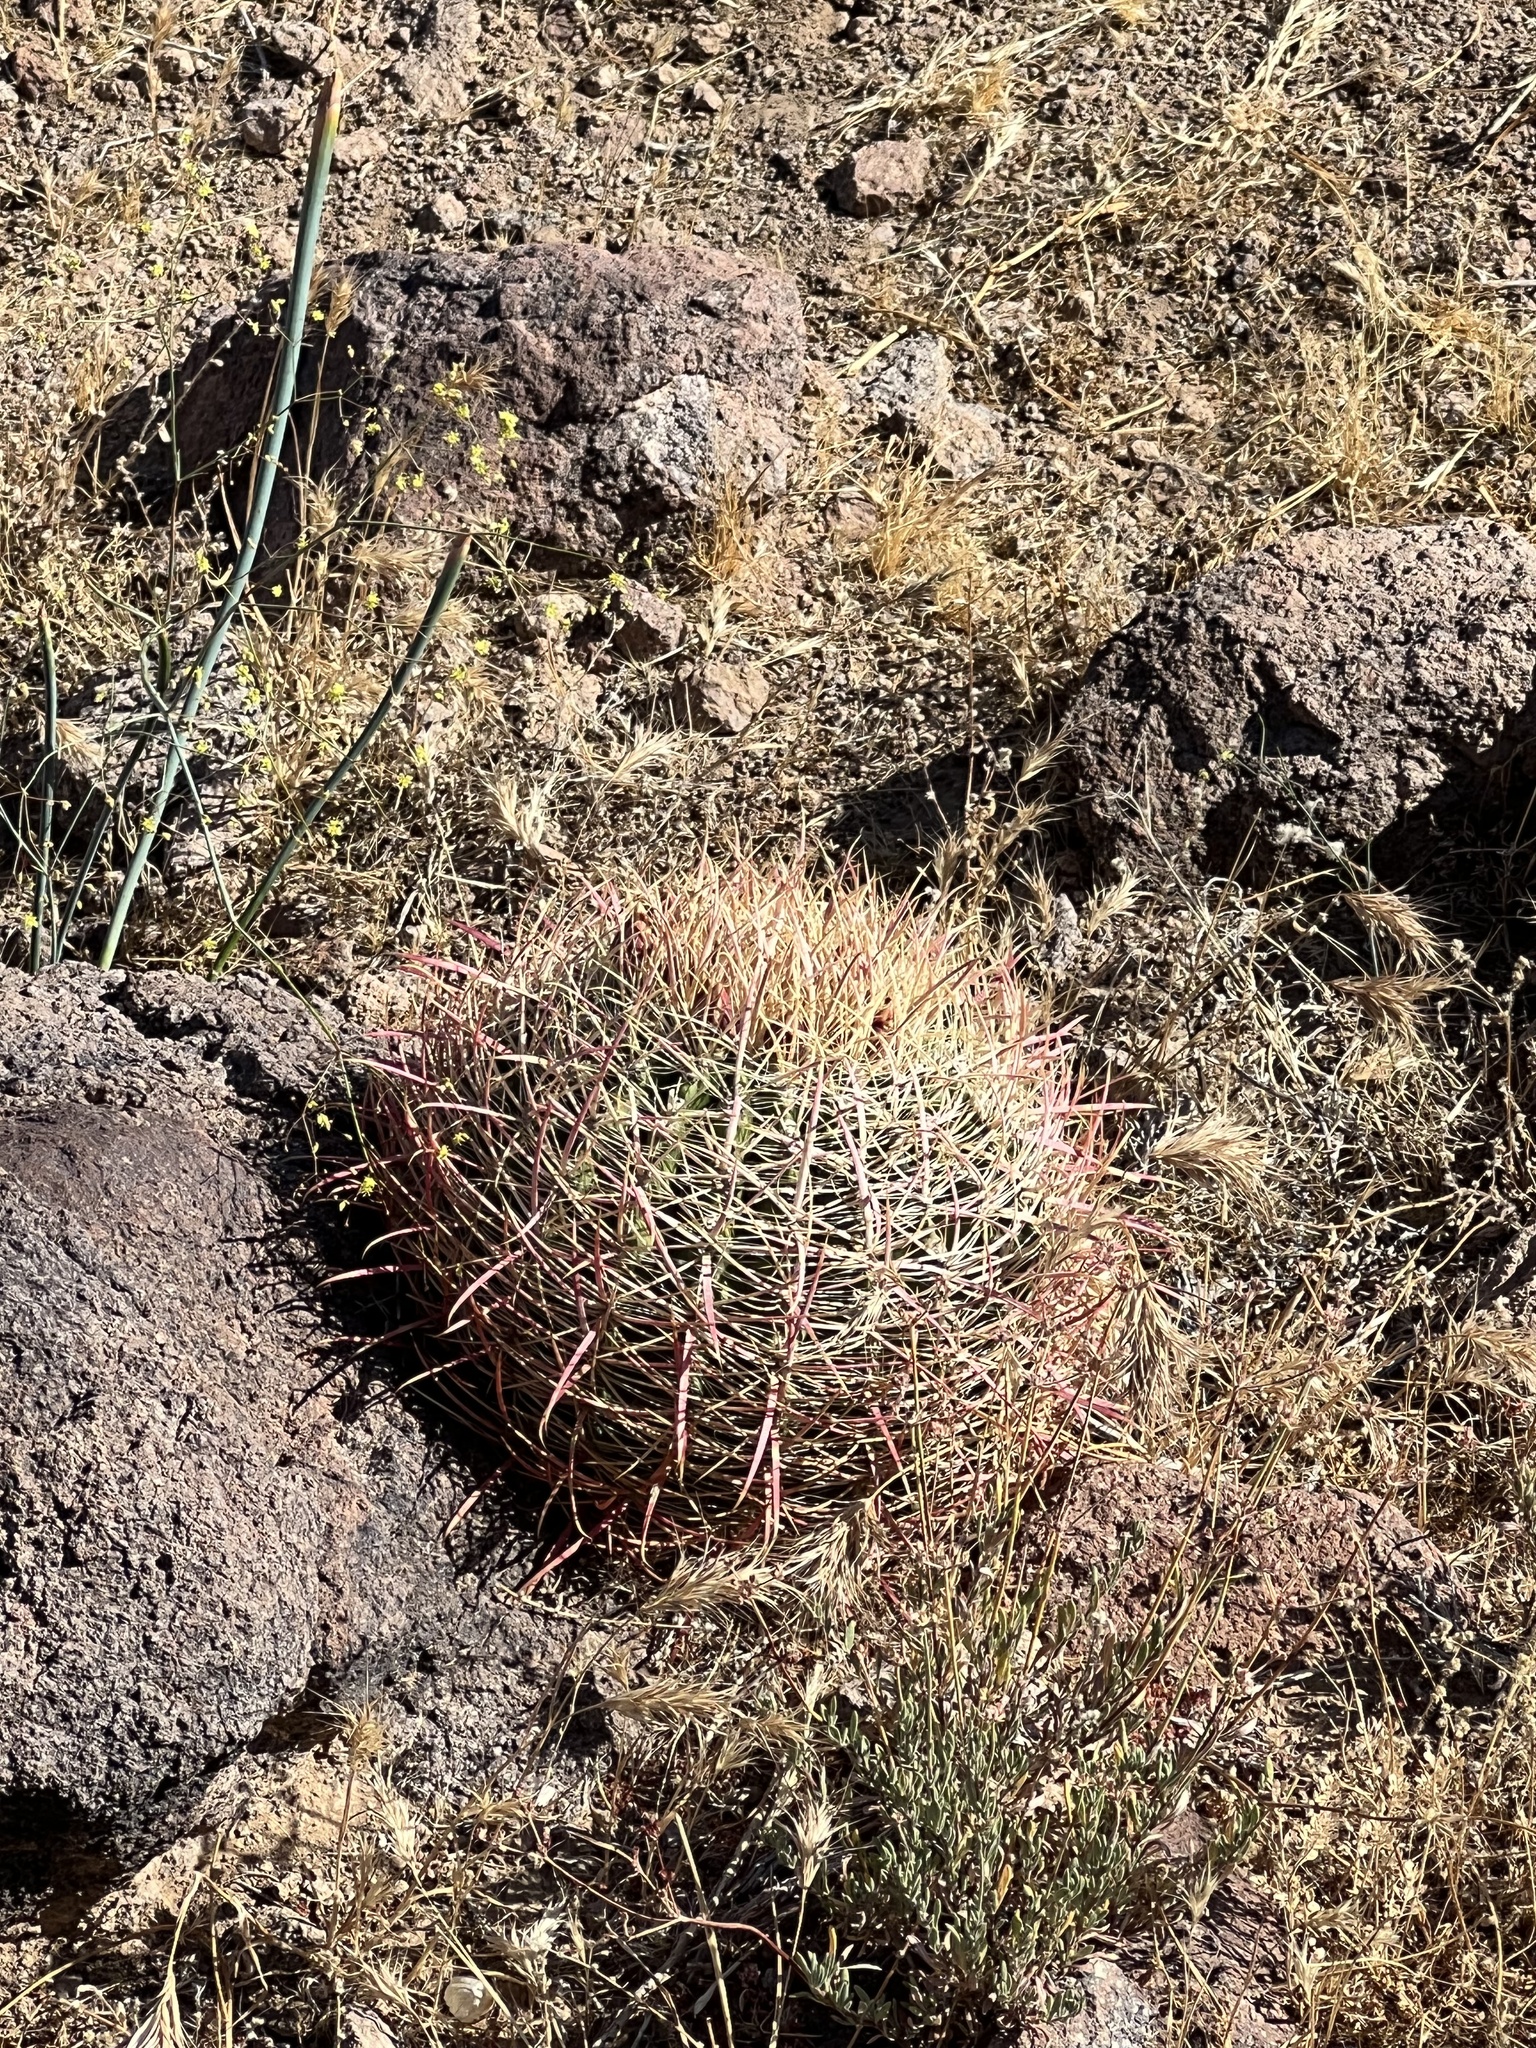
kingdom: Plantae
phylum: Tracheophyta
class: Magnoliopsida
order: Caryophyllales
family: Cactaceae
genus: Ferocactus
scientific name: Ferocactus cylindraceus
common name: California barrel cactus
